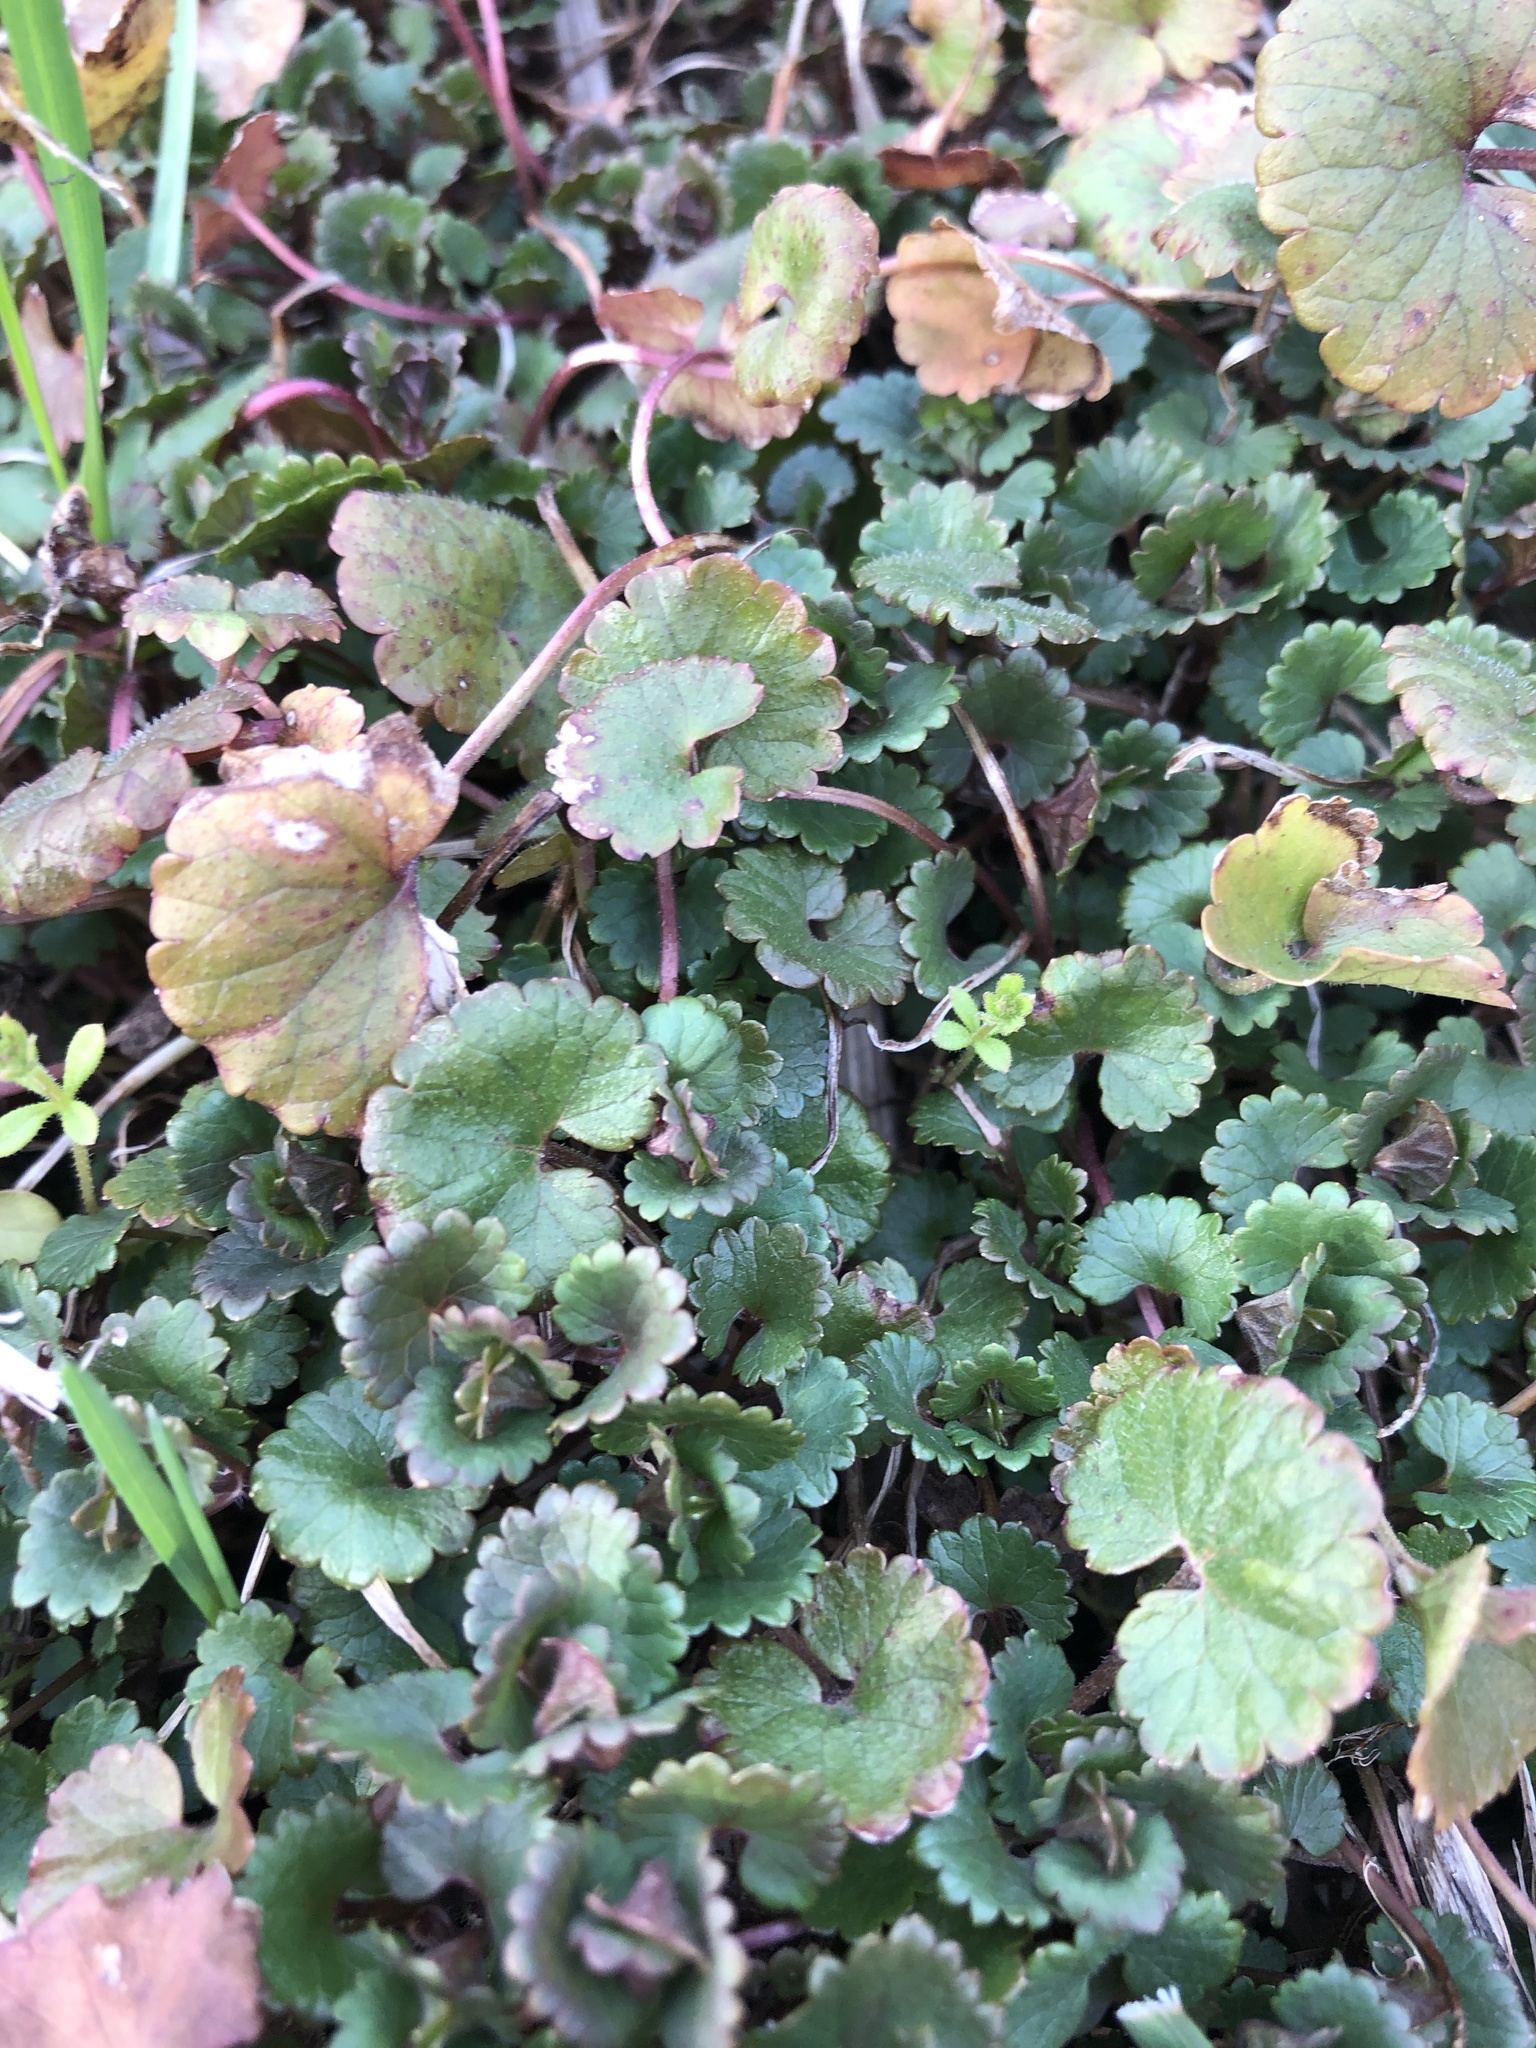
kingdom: Plantae
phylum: Tracheophyta
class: Magnoliopsida
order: Lamiales
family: Lamiaceae
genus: Glechoma
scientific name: Glechoma hederacea
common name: Ground ivy
